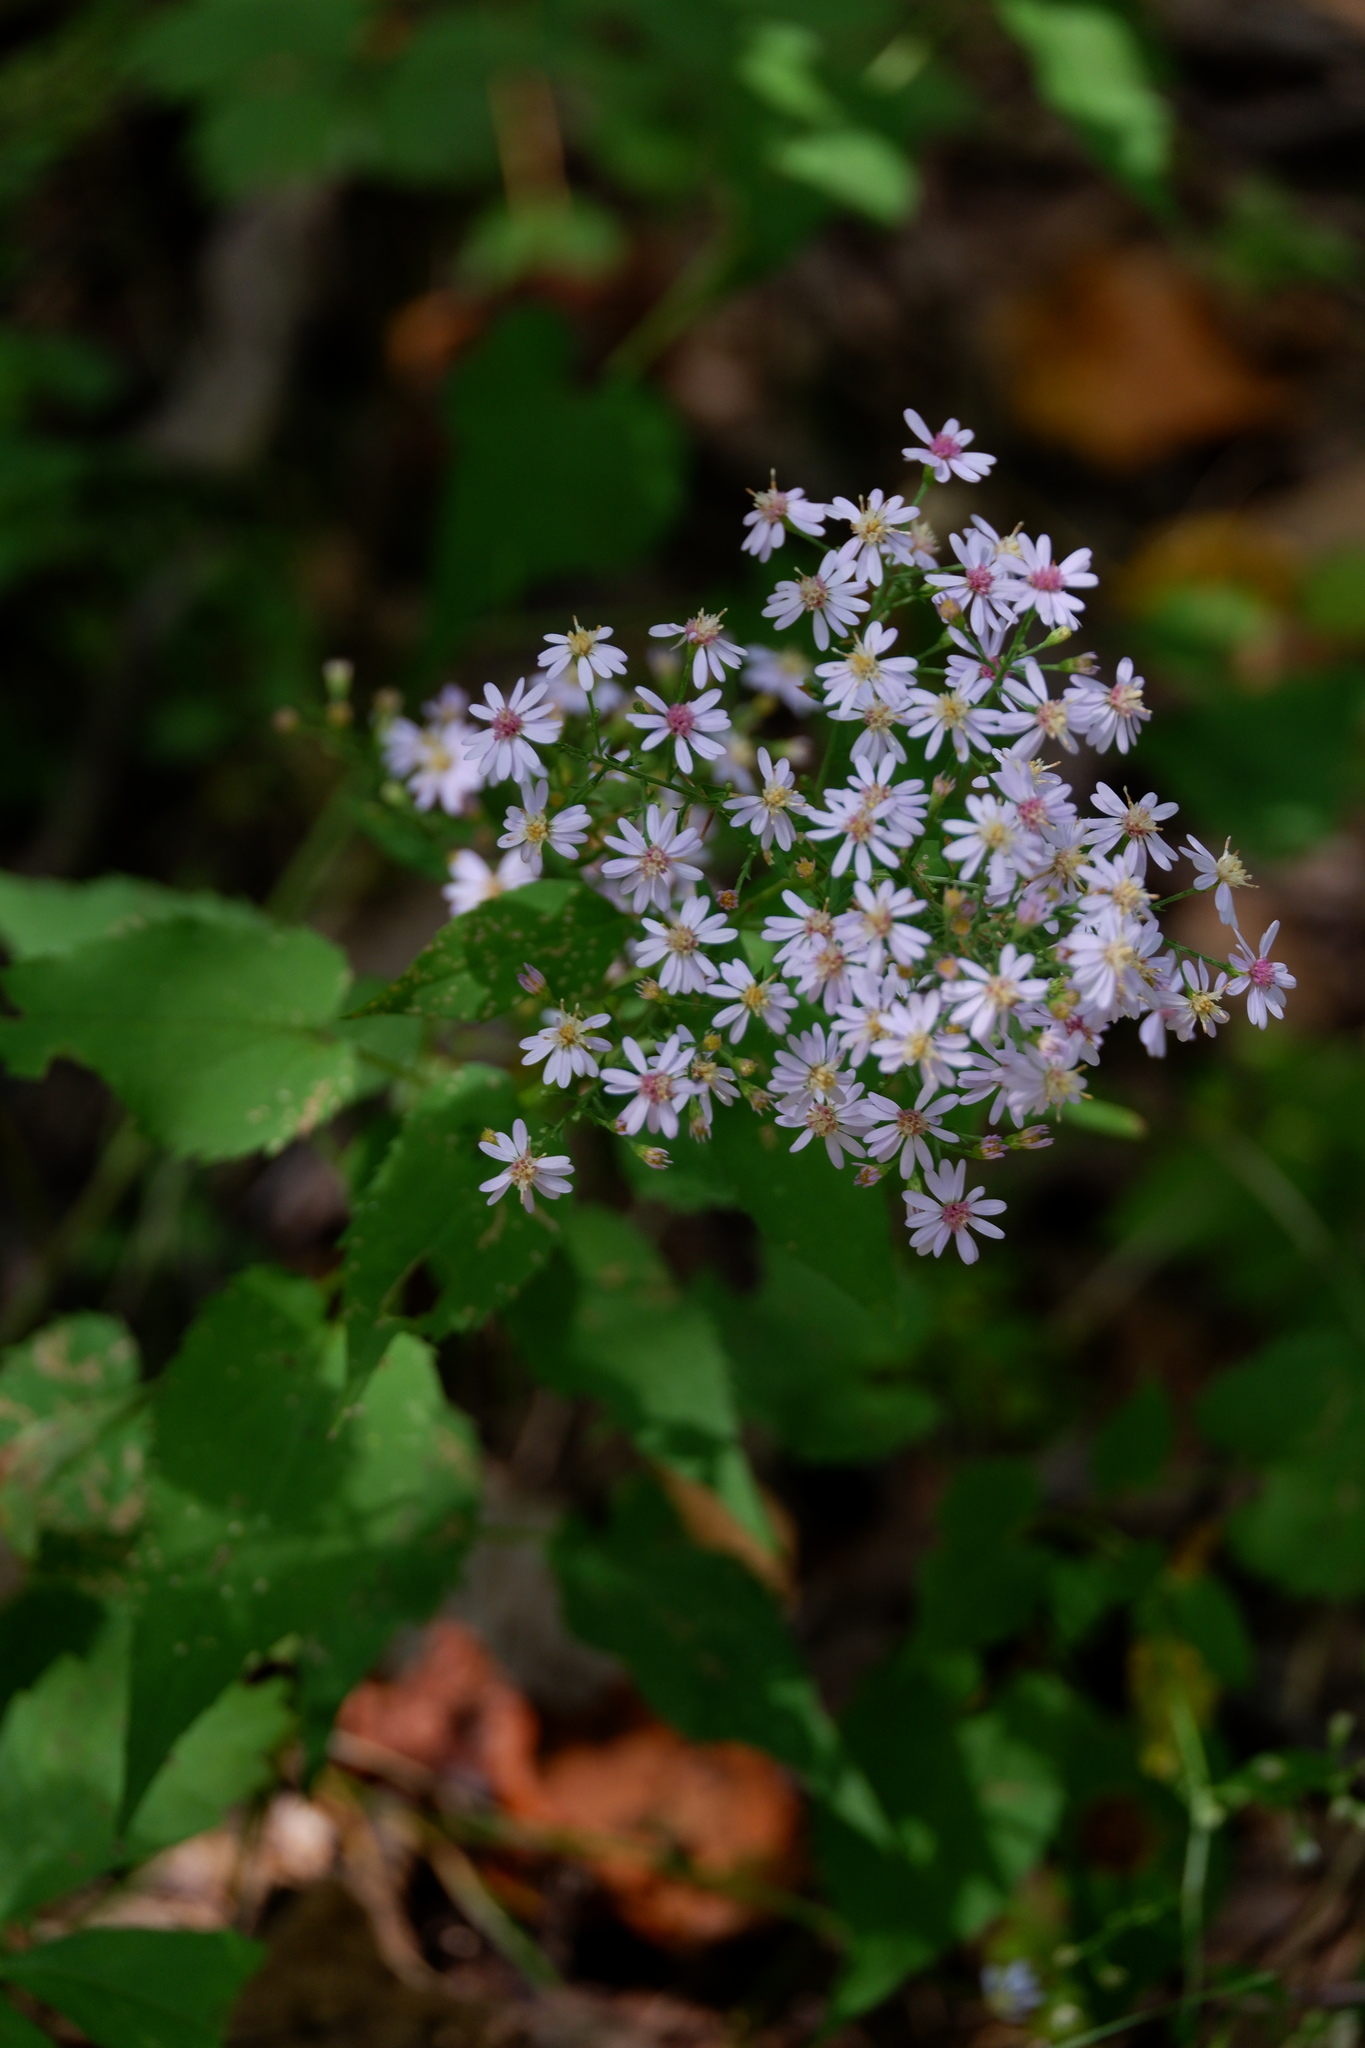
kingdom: Plantae
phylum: Tracheophyta
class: Magnoliopsida
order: Asterales
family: Asteraceae
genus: Symphyotrichum
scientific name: Symphyotrichum cordifolium
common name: Beeweed
